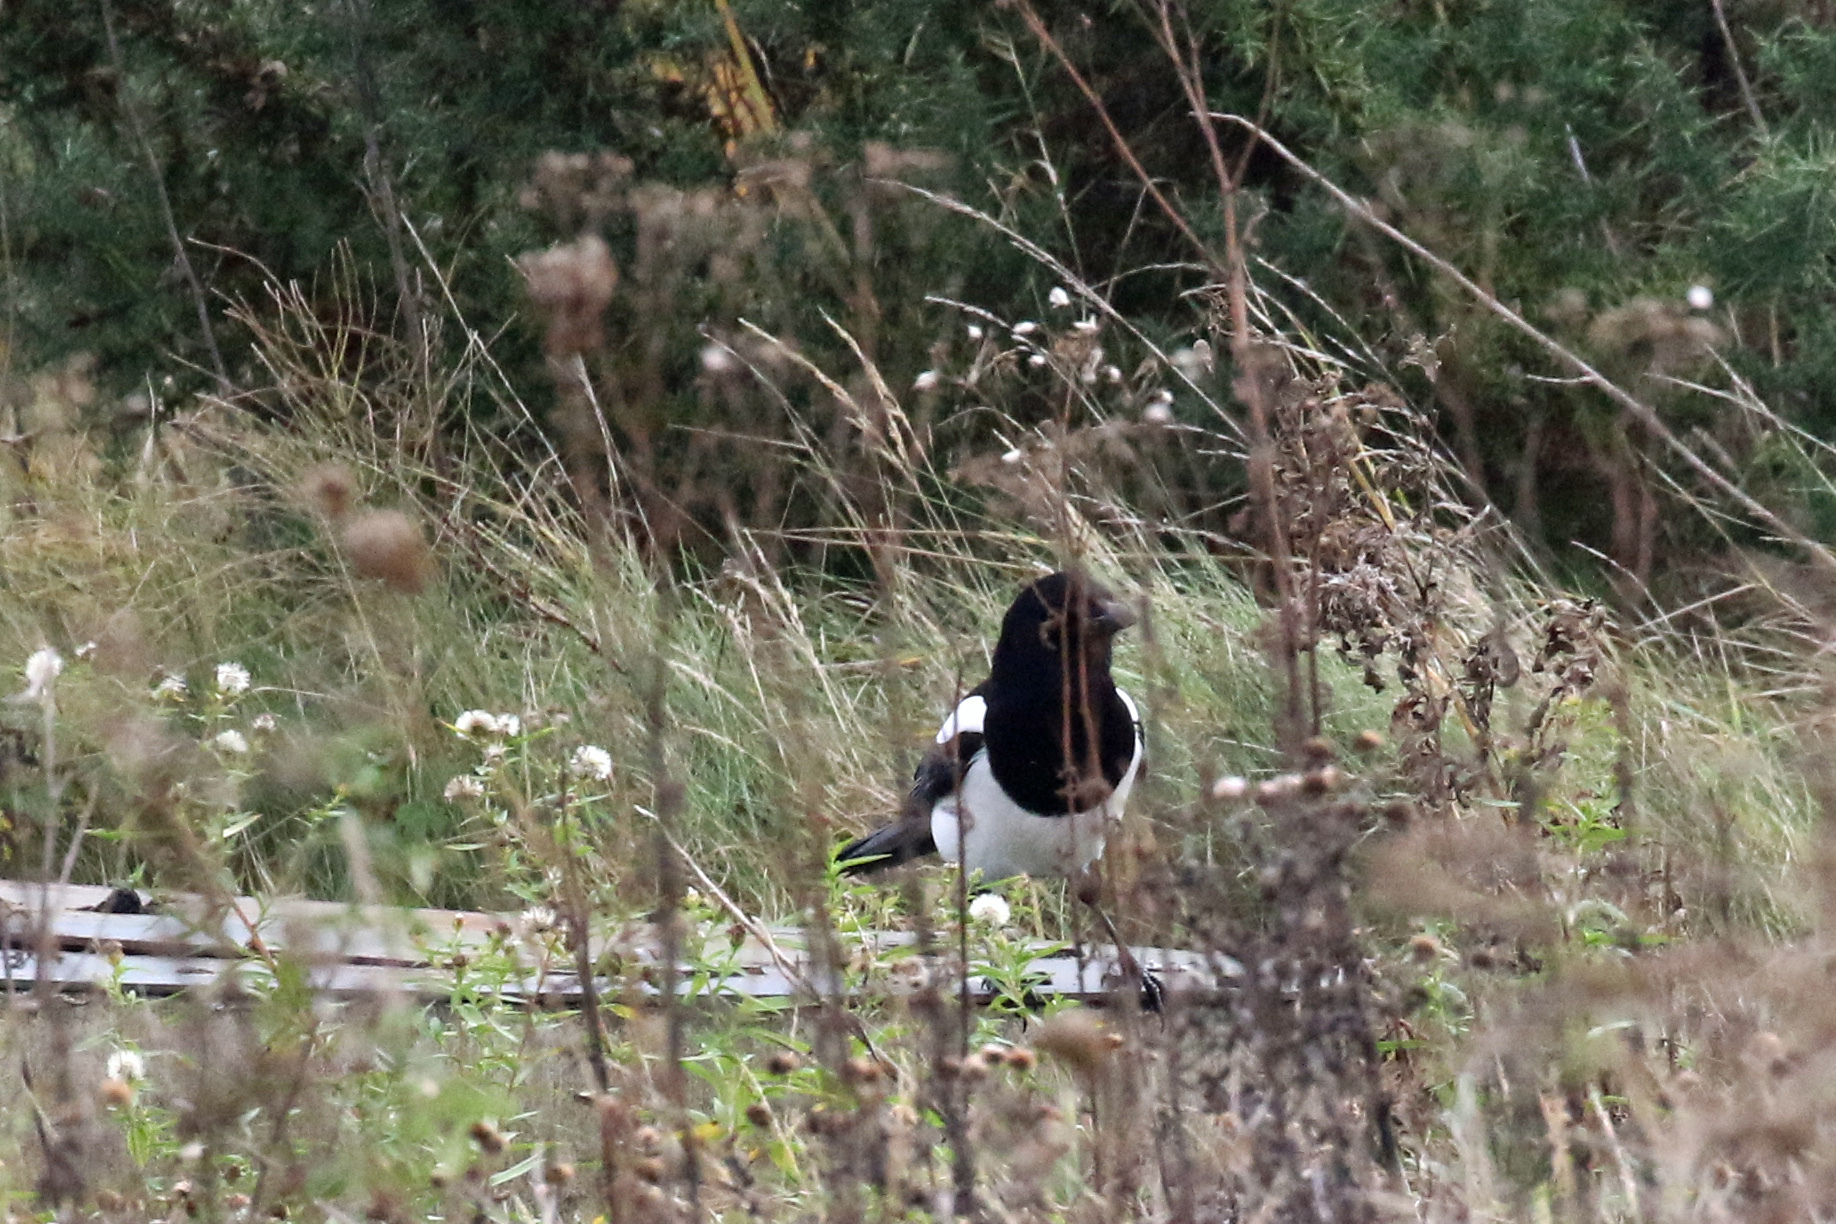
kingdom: Animalia
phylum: Chordata
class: Aves
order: Passeriformes
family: Corvidae
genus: Pica
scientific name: Pica pica
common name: Eurasian magpie
